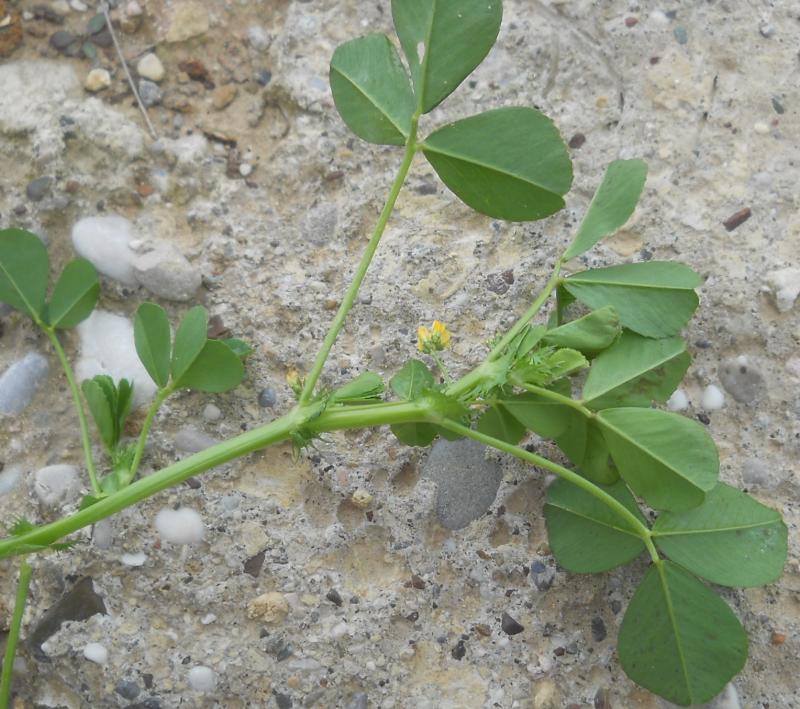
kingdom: Plantae
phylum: Tracheophyta
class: Magnoliopsida
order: Fabales
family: Fabaceae
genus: Medicago
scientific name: Medicago polymorpha
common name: Burclover
